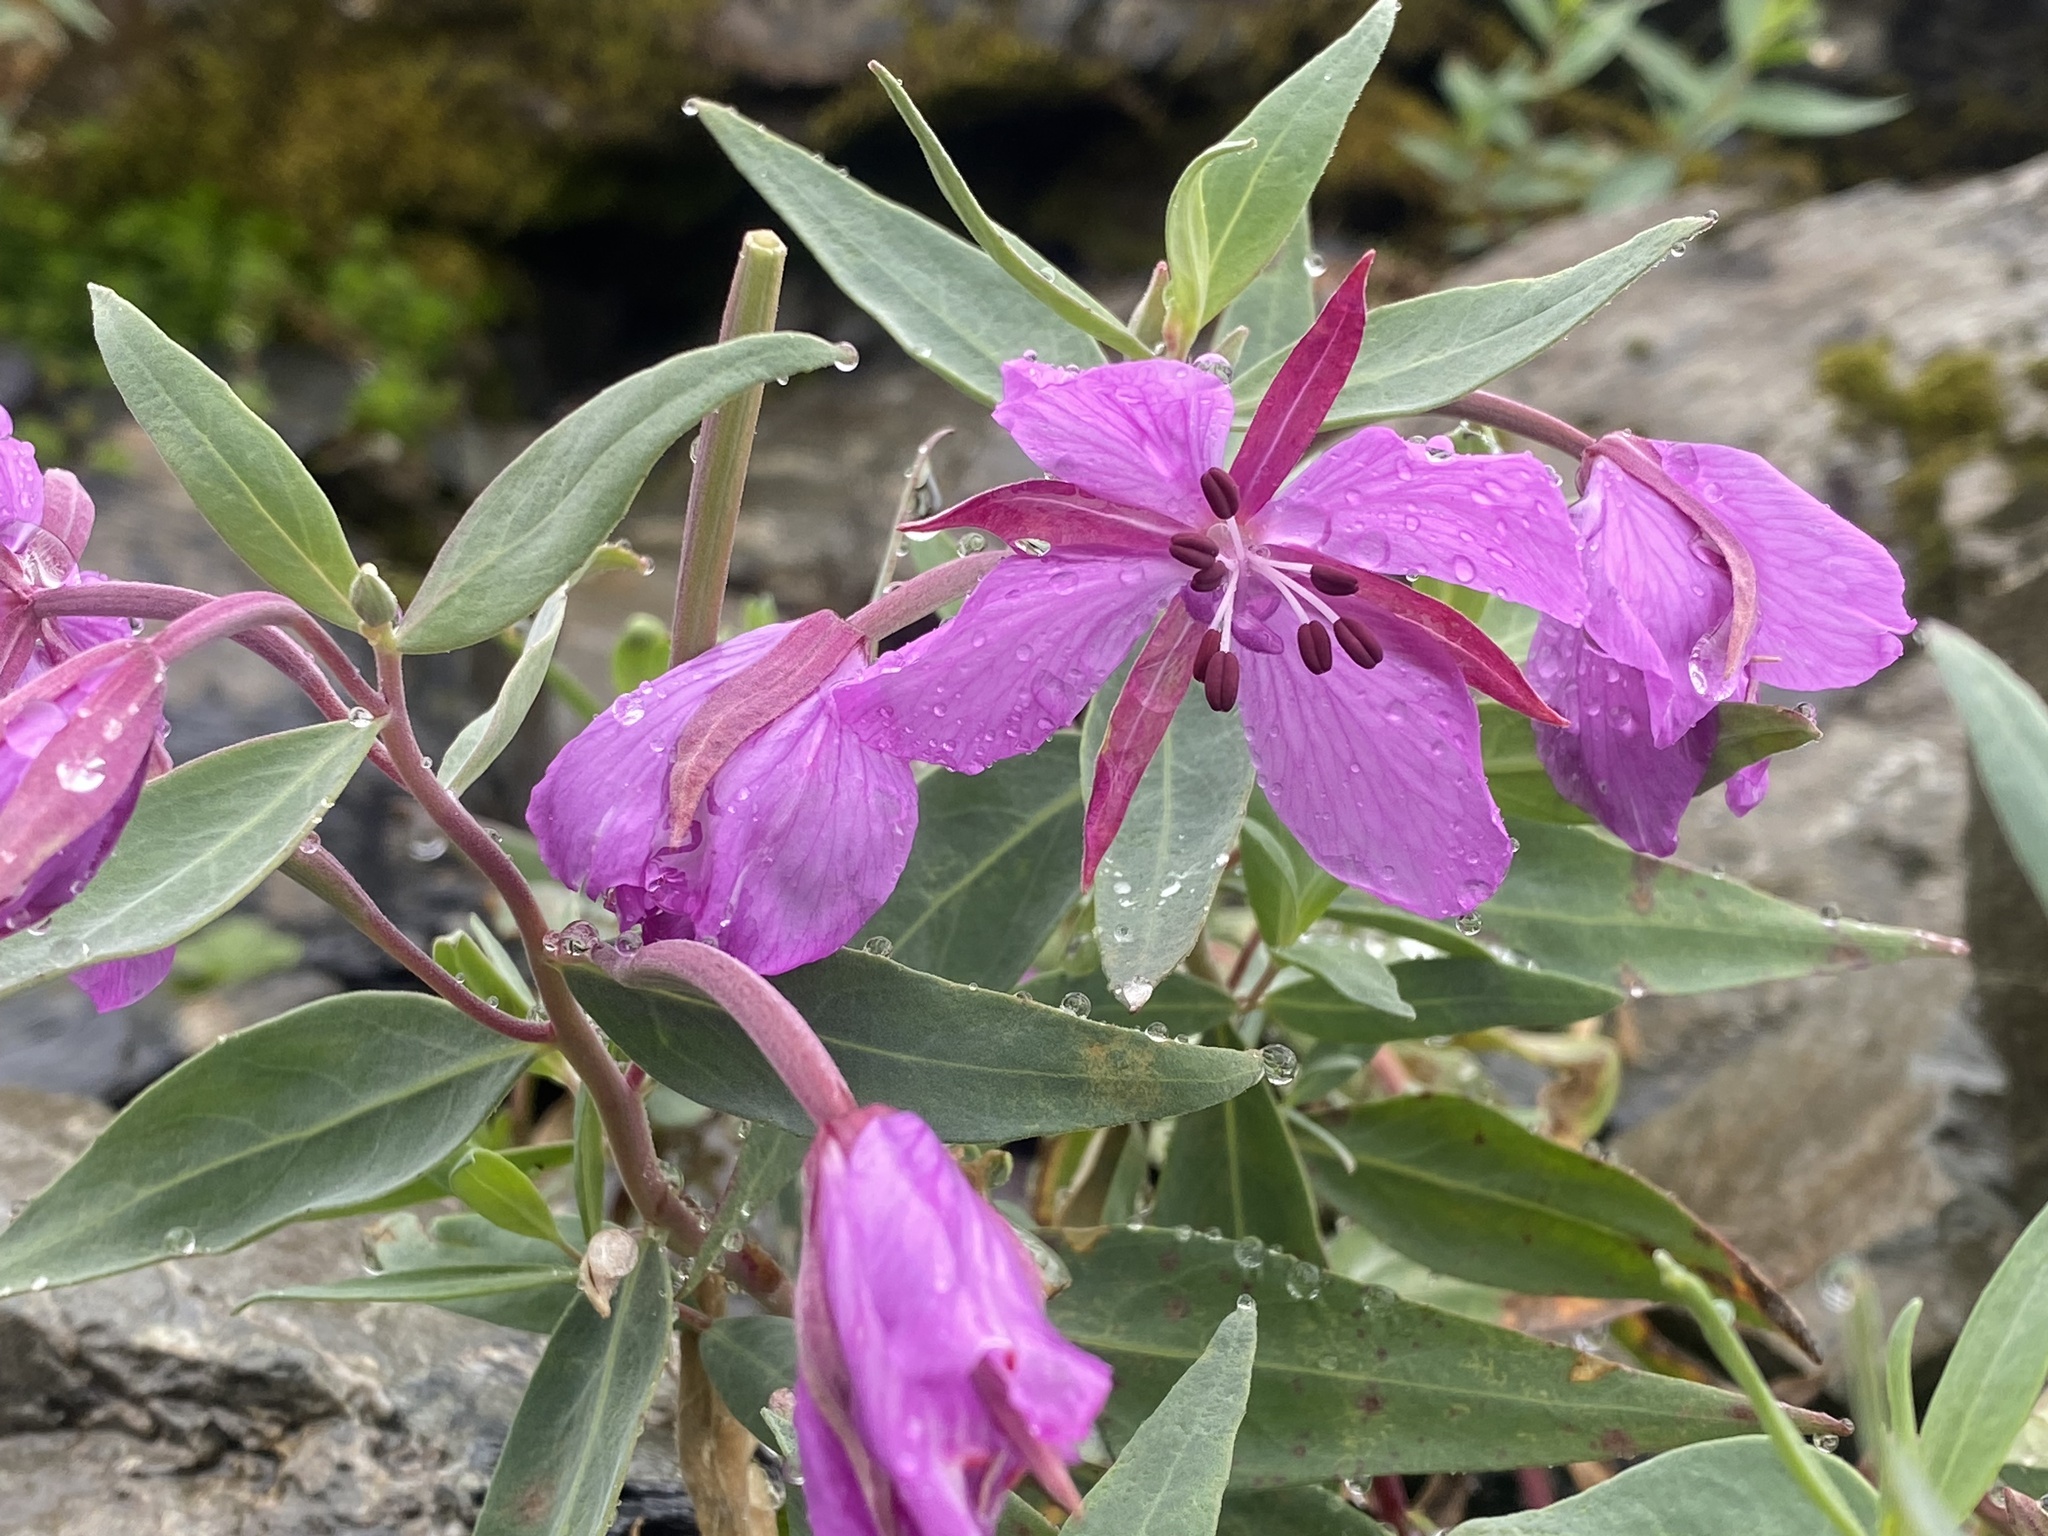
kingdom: Plantae
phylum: Tracheophyta
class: Magnoliopsida
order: Myrtales
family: Onagraceae
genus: Chamaenerion
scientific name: Chamaenerion latifolium
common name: Dwarf fireweed
